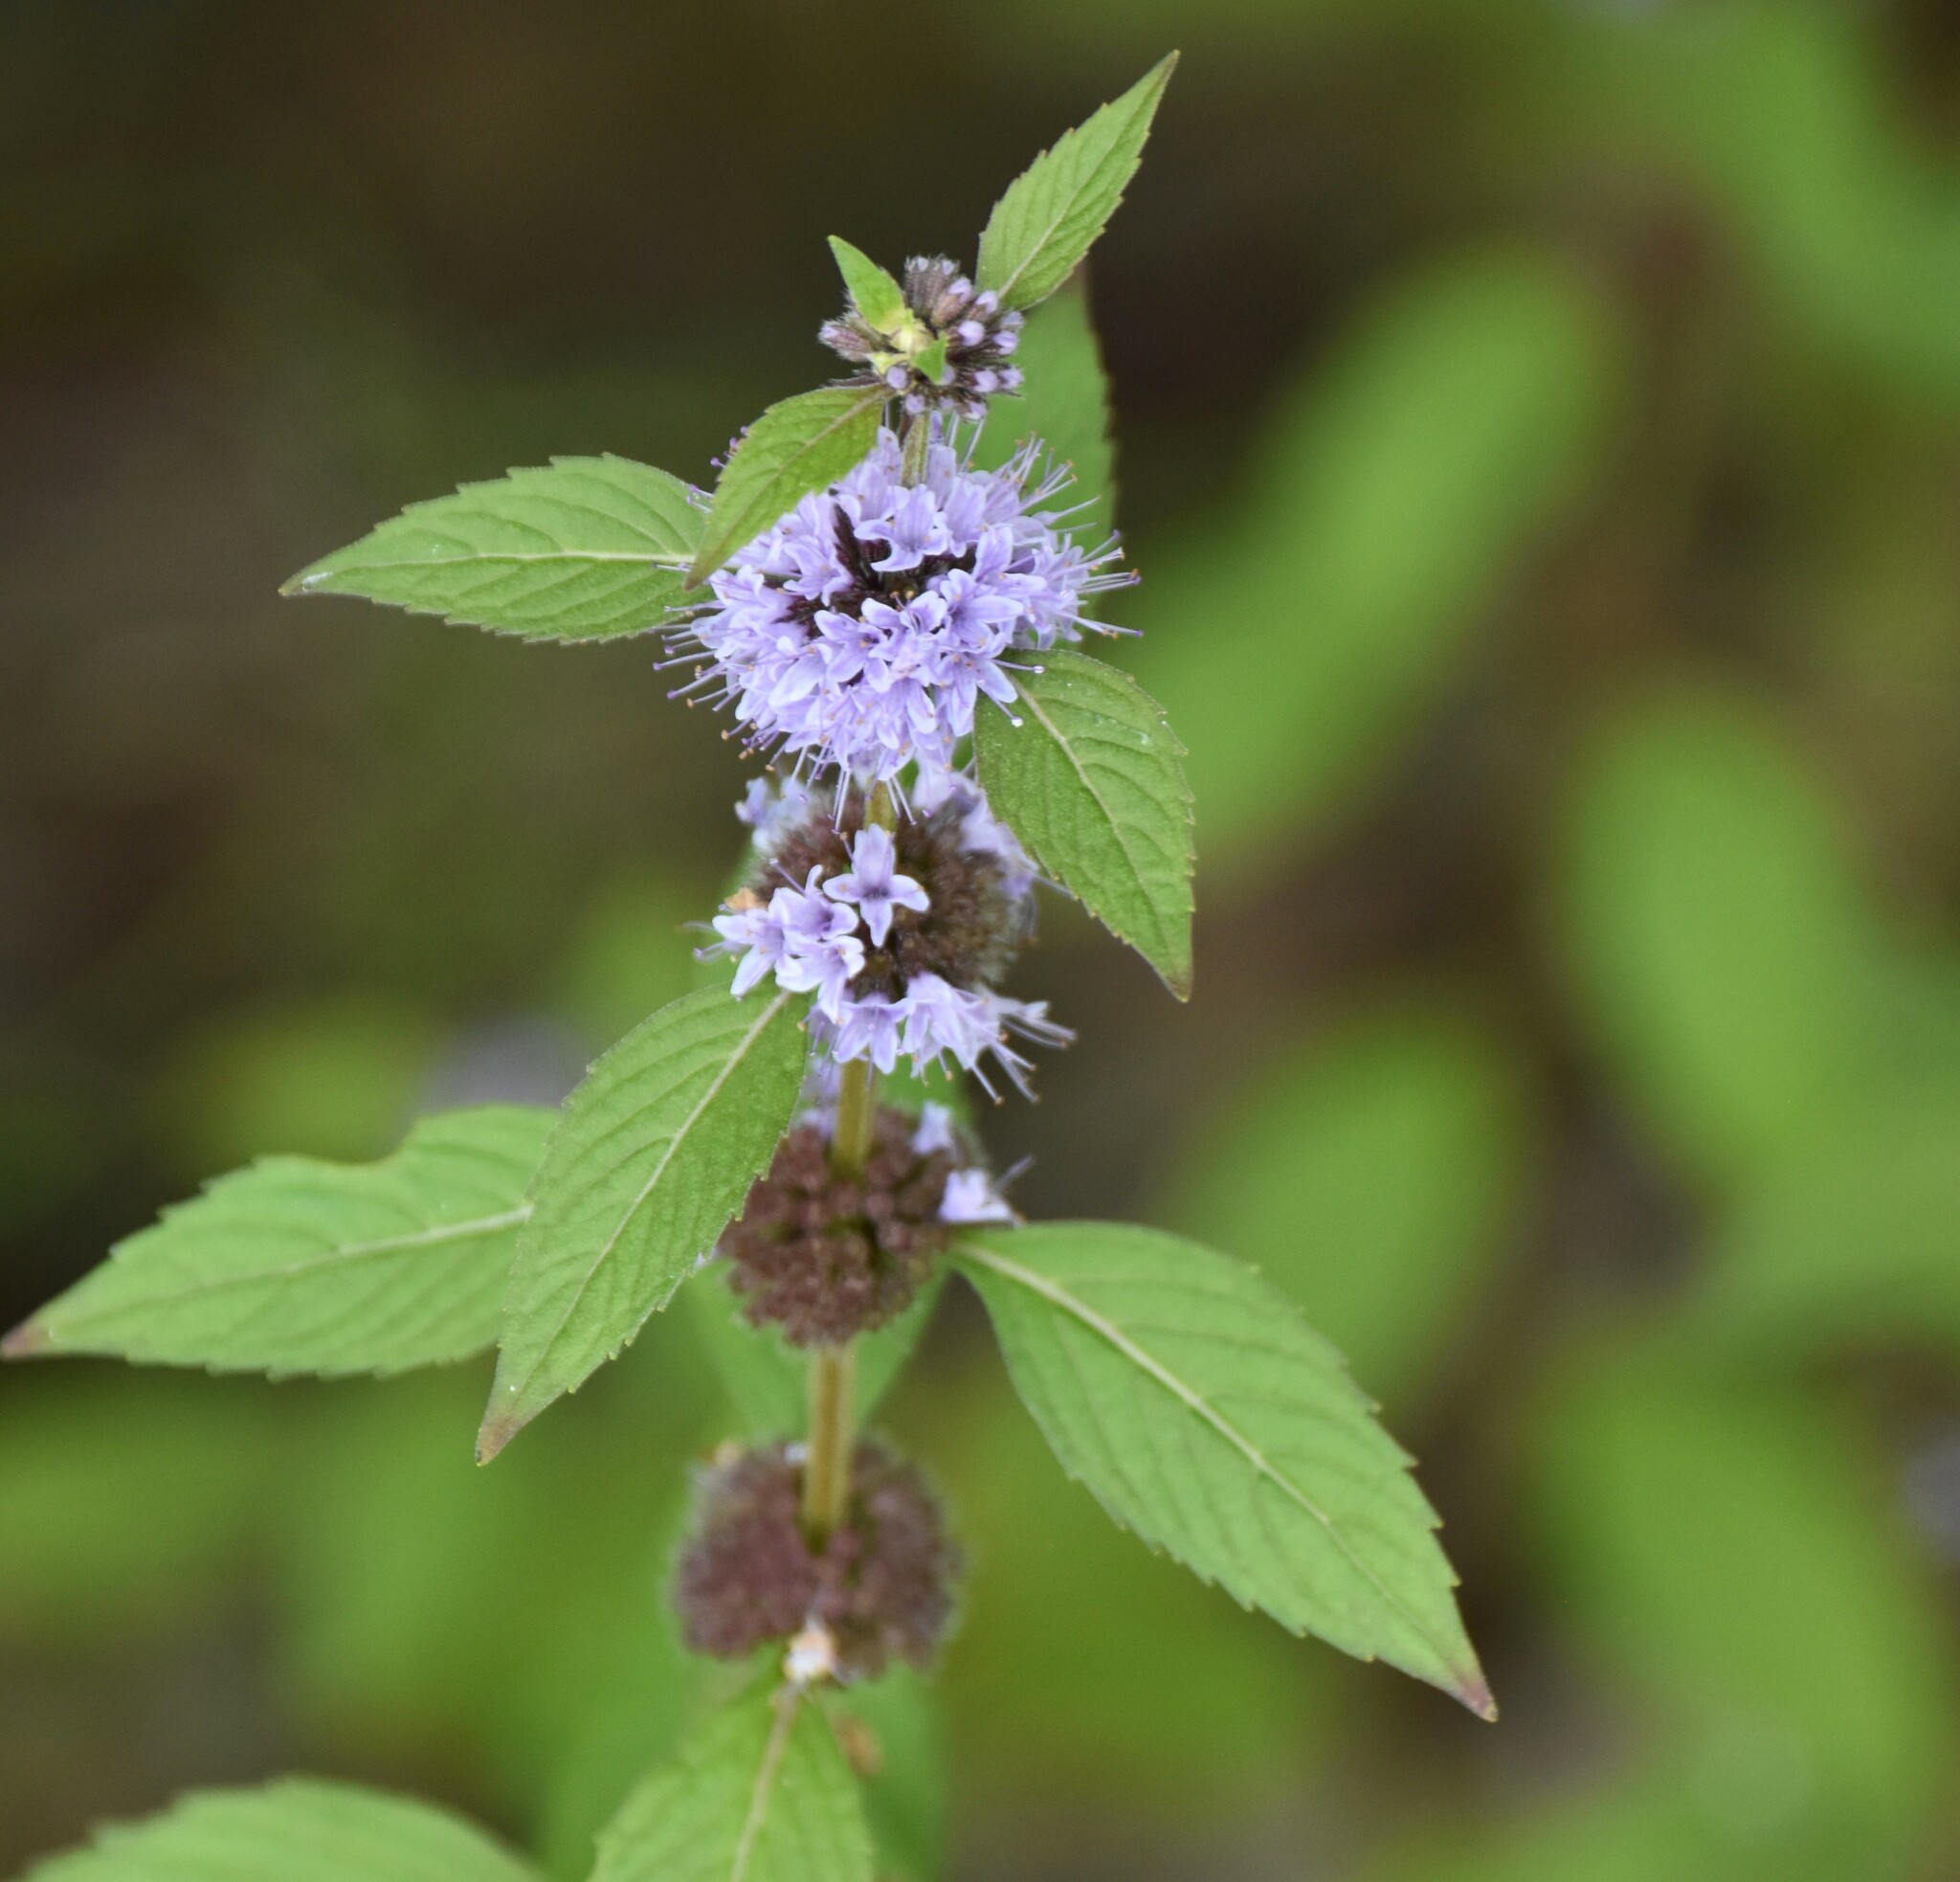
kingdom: Plantae
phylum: Tracheophyta
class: Magnoliopsida
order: Lamiales
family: Lamiaceae
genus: Mentha
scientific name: Mentha canadensis
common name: American corn mint
